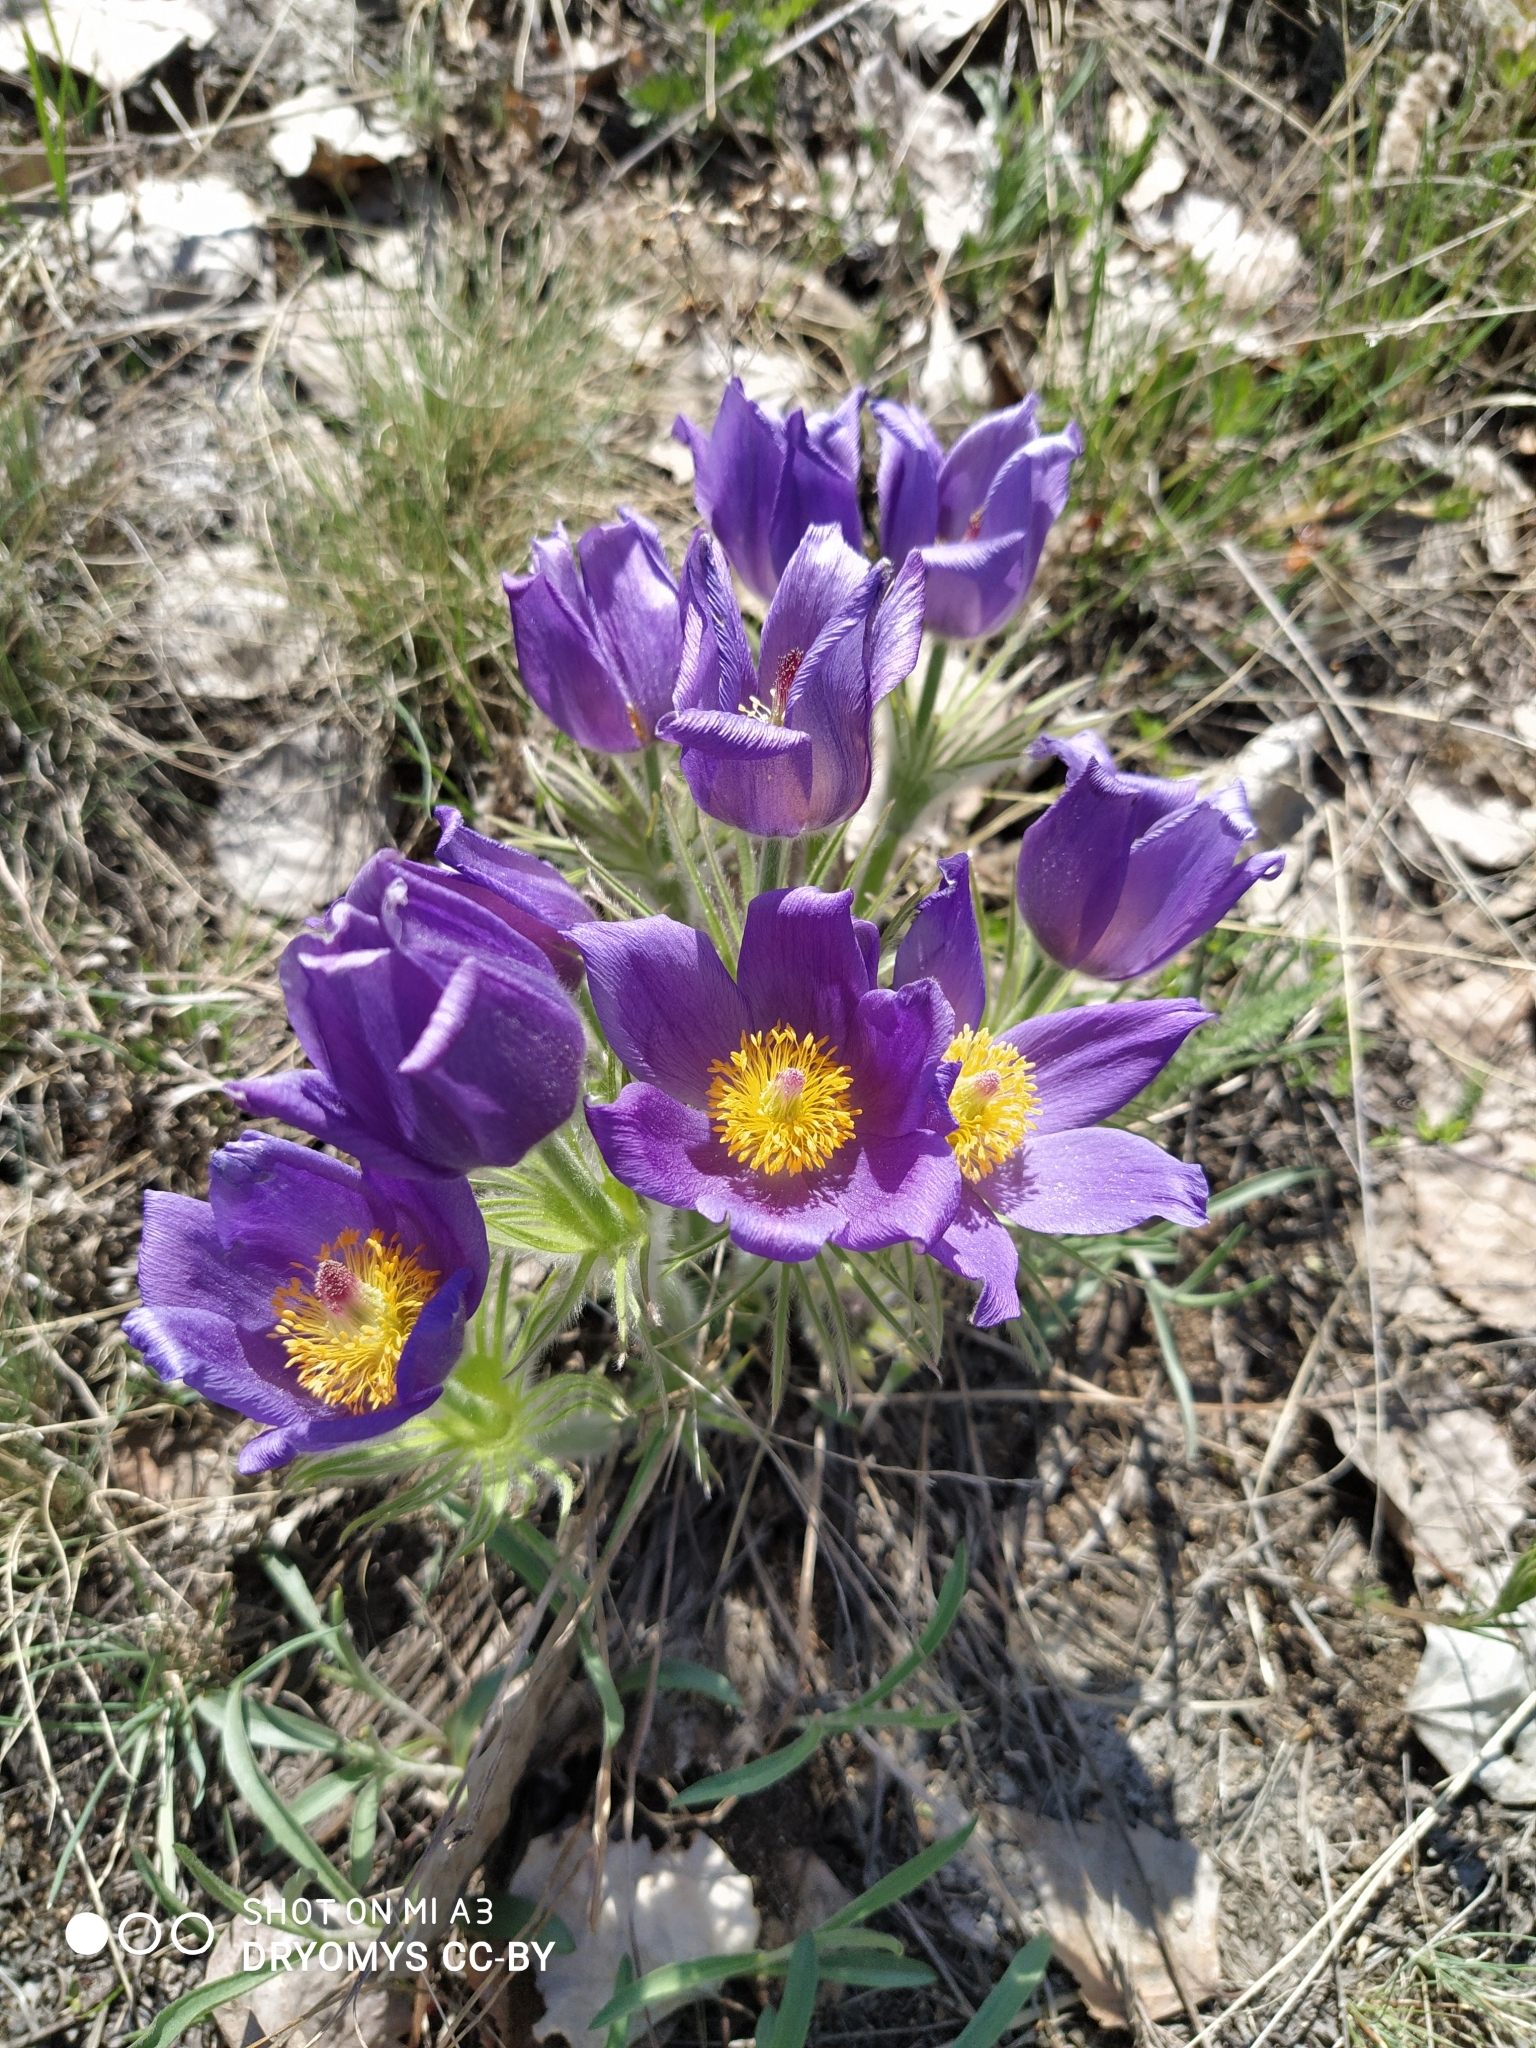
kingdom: Plantae
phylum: Tracheophyta
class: Magnoliopsida
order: Ranunculales
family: Ranunculaceae
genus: Pulsatilla
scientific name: Pulsatilla patens
